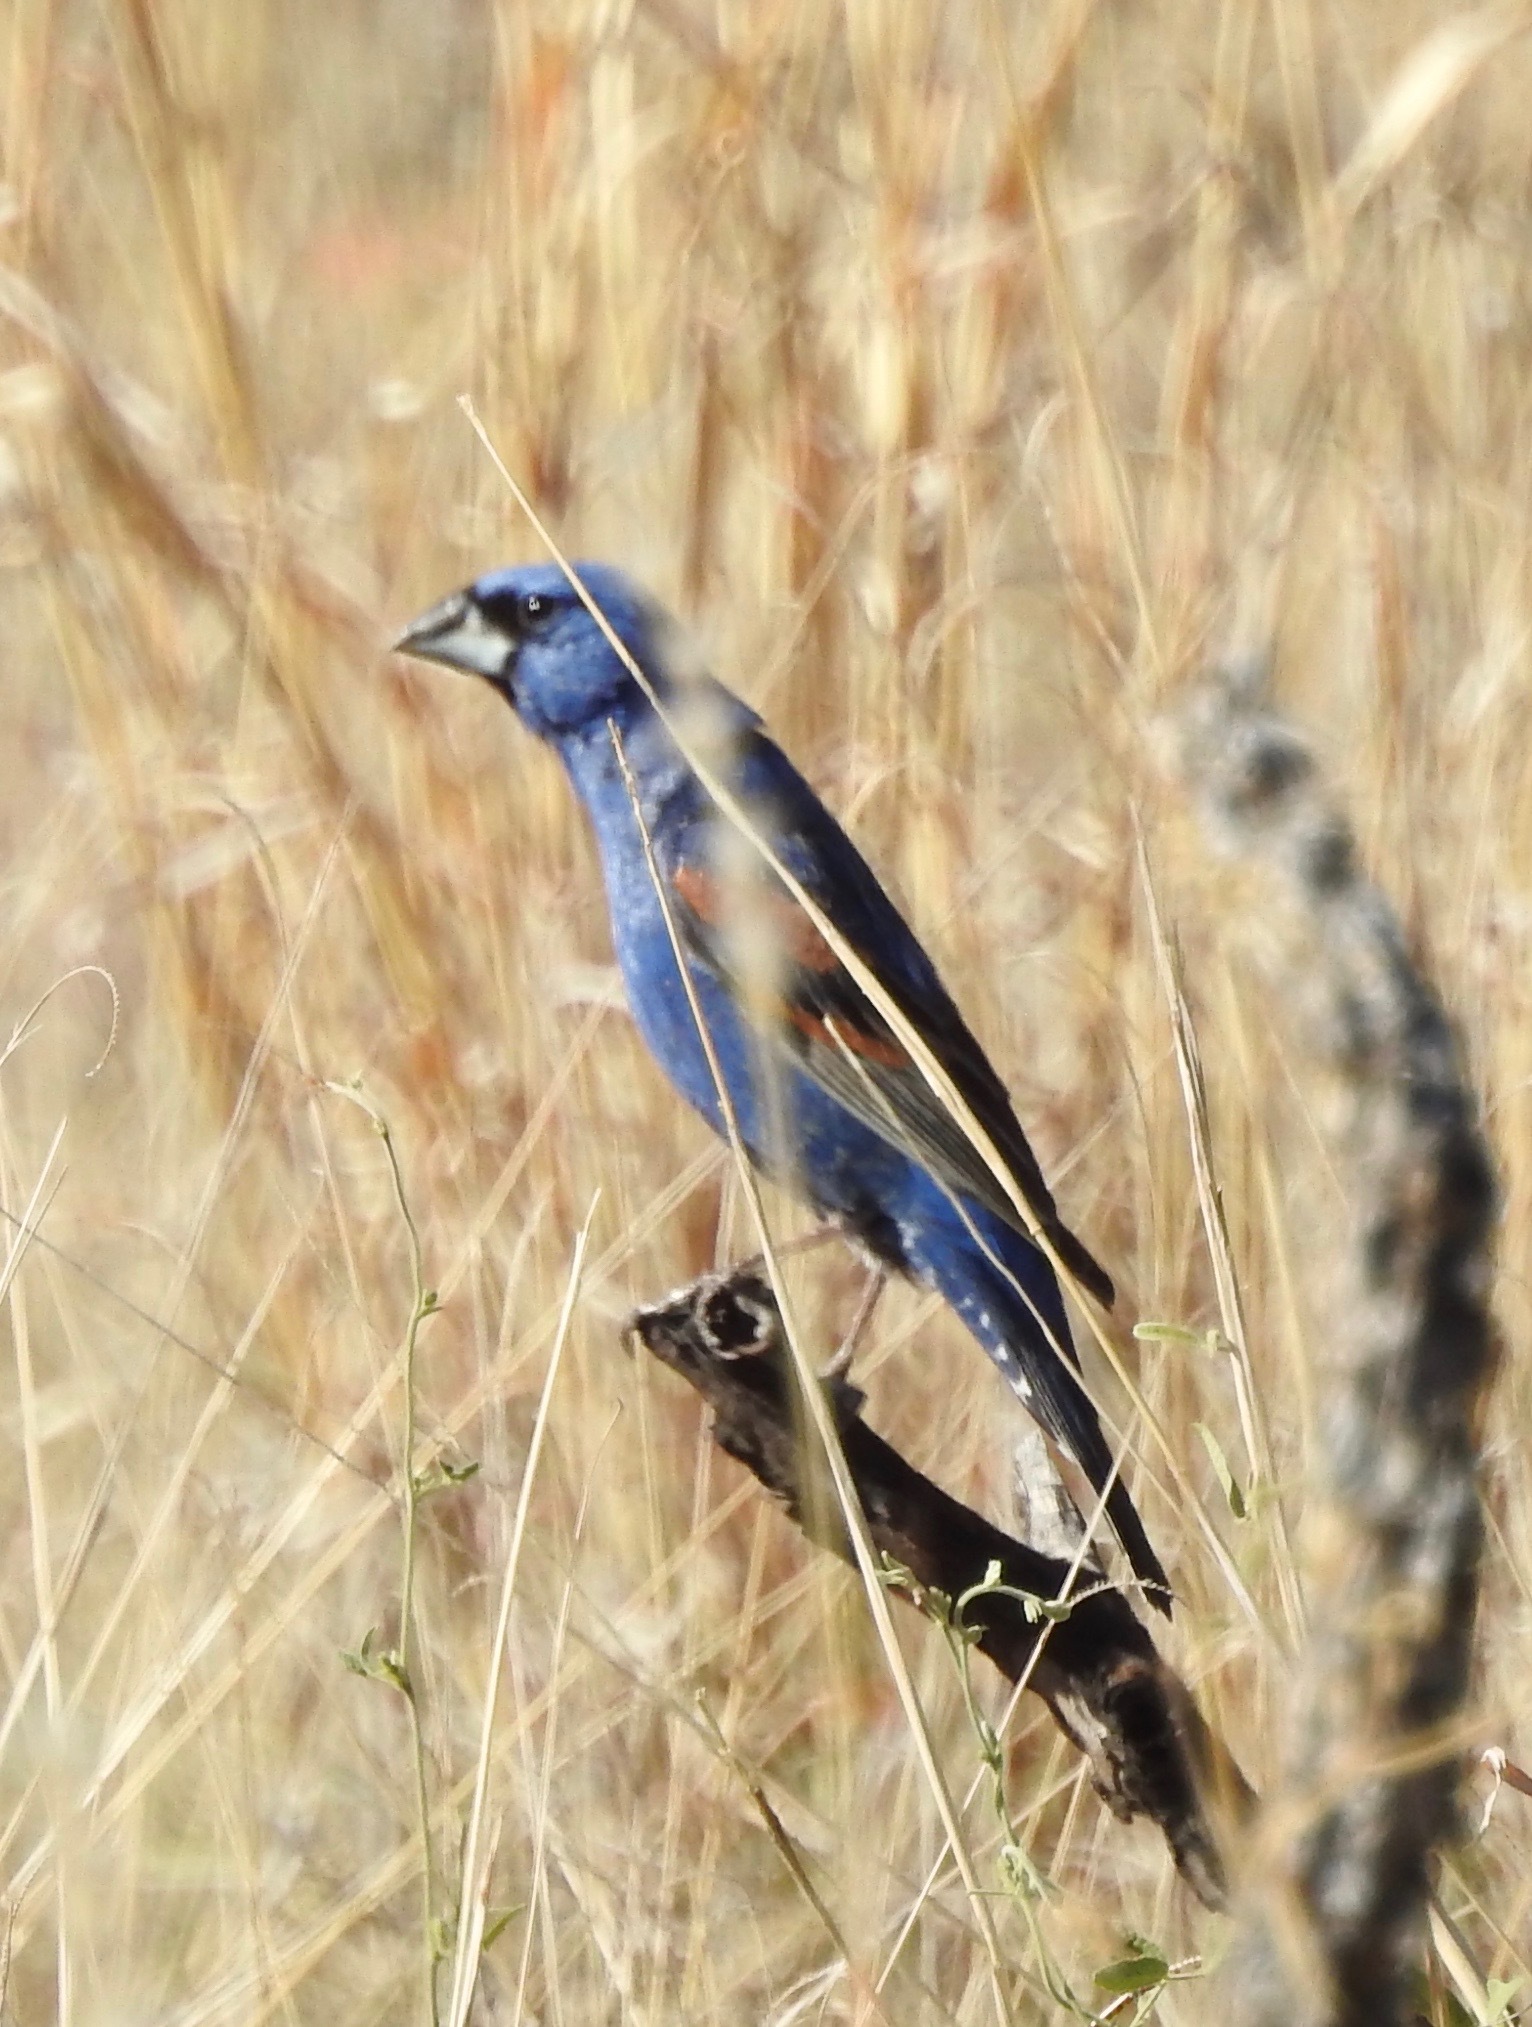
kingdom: Animalia
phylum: Chordata
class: Aves
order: Passeriformes
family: Cardinalidae
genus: Passerina
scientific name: Passerina caerulea
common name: Blue grosbeak
